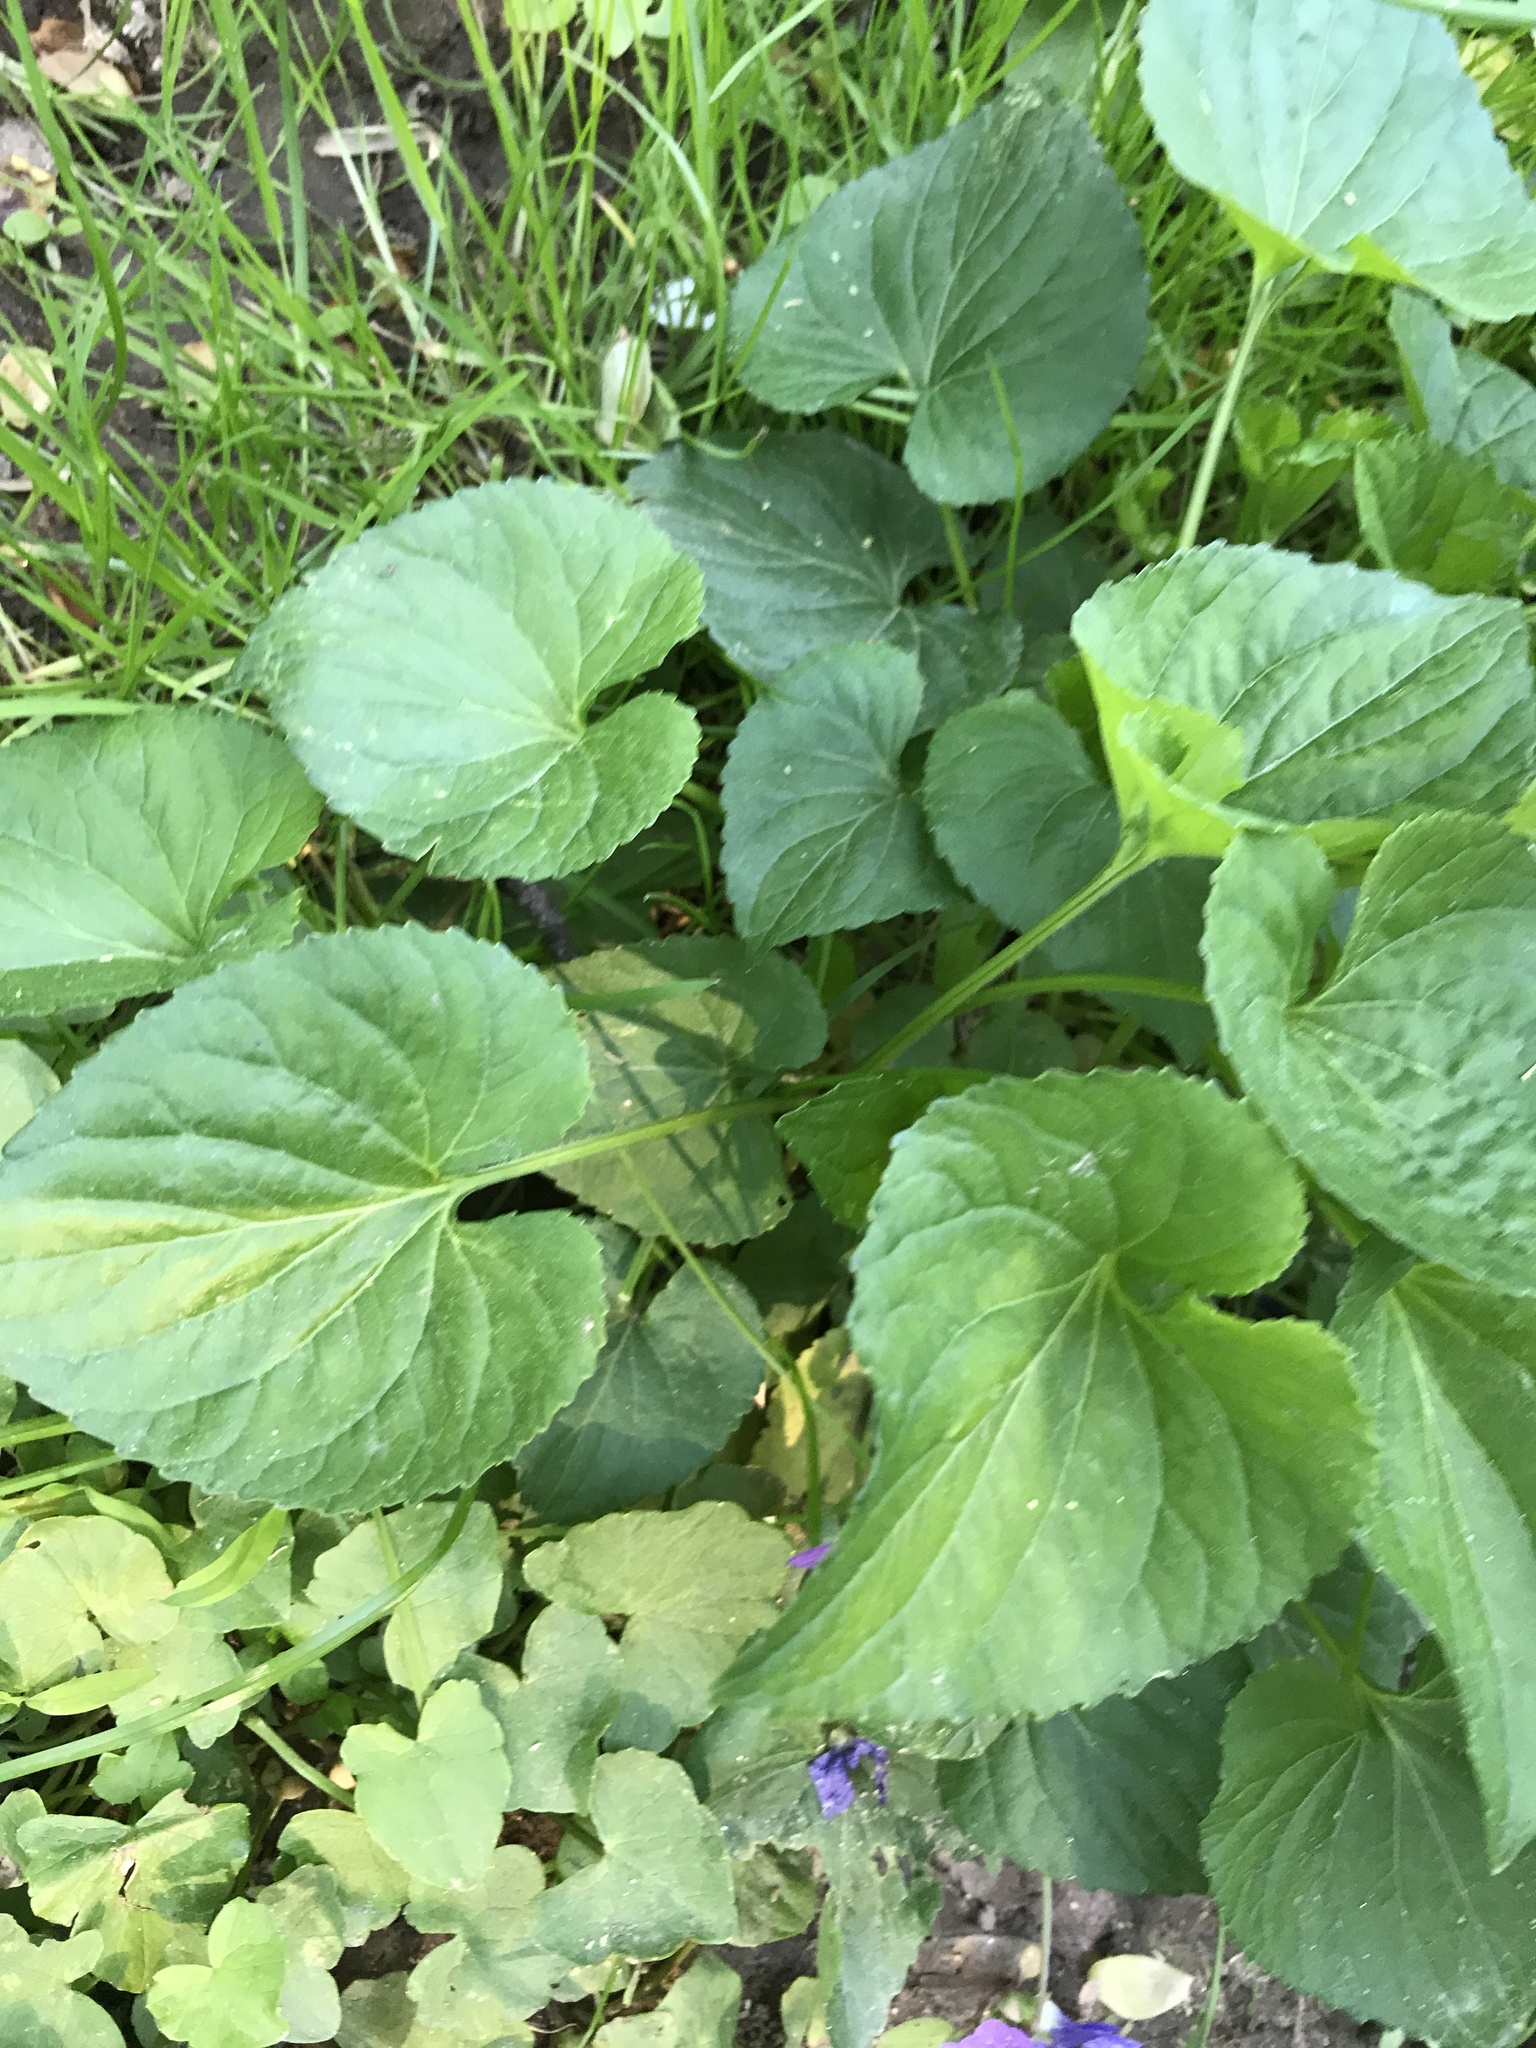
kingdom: Plantae
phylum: Tracheophyta
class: Magnoliopsida
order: Malpighiales
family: Violaceae
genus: Viola
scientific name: Viola sororia
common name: Dooryard violet
